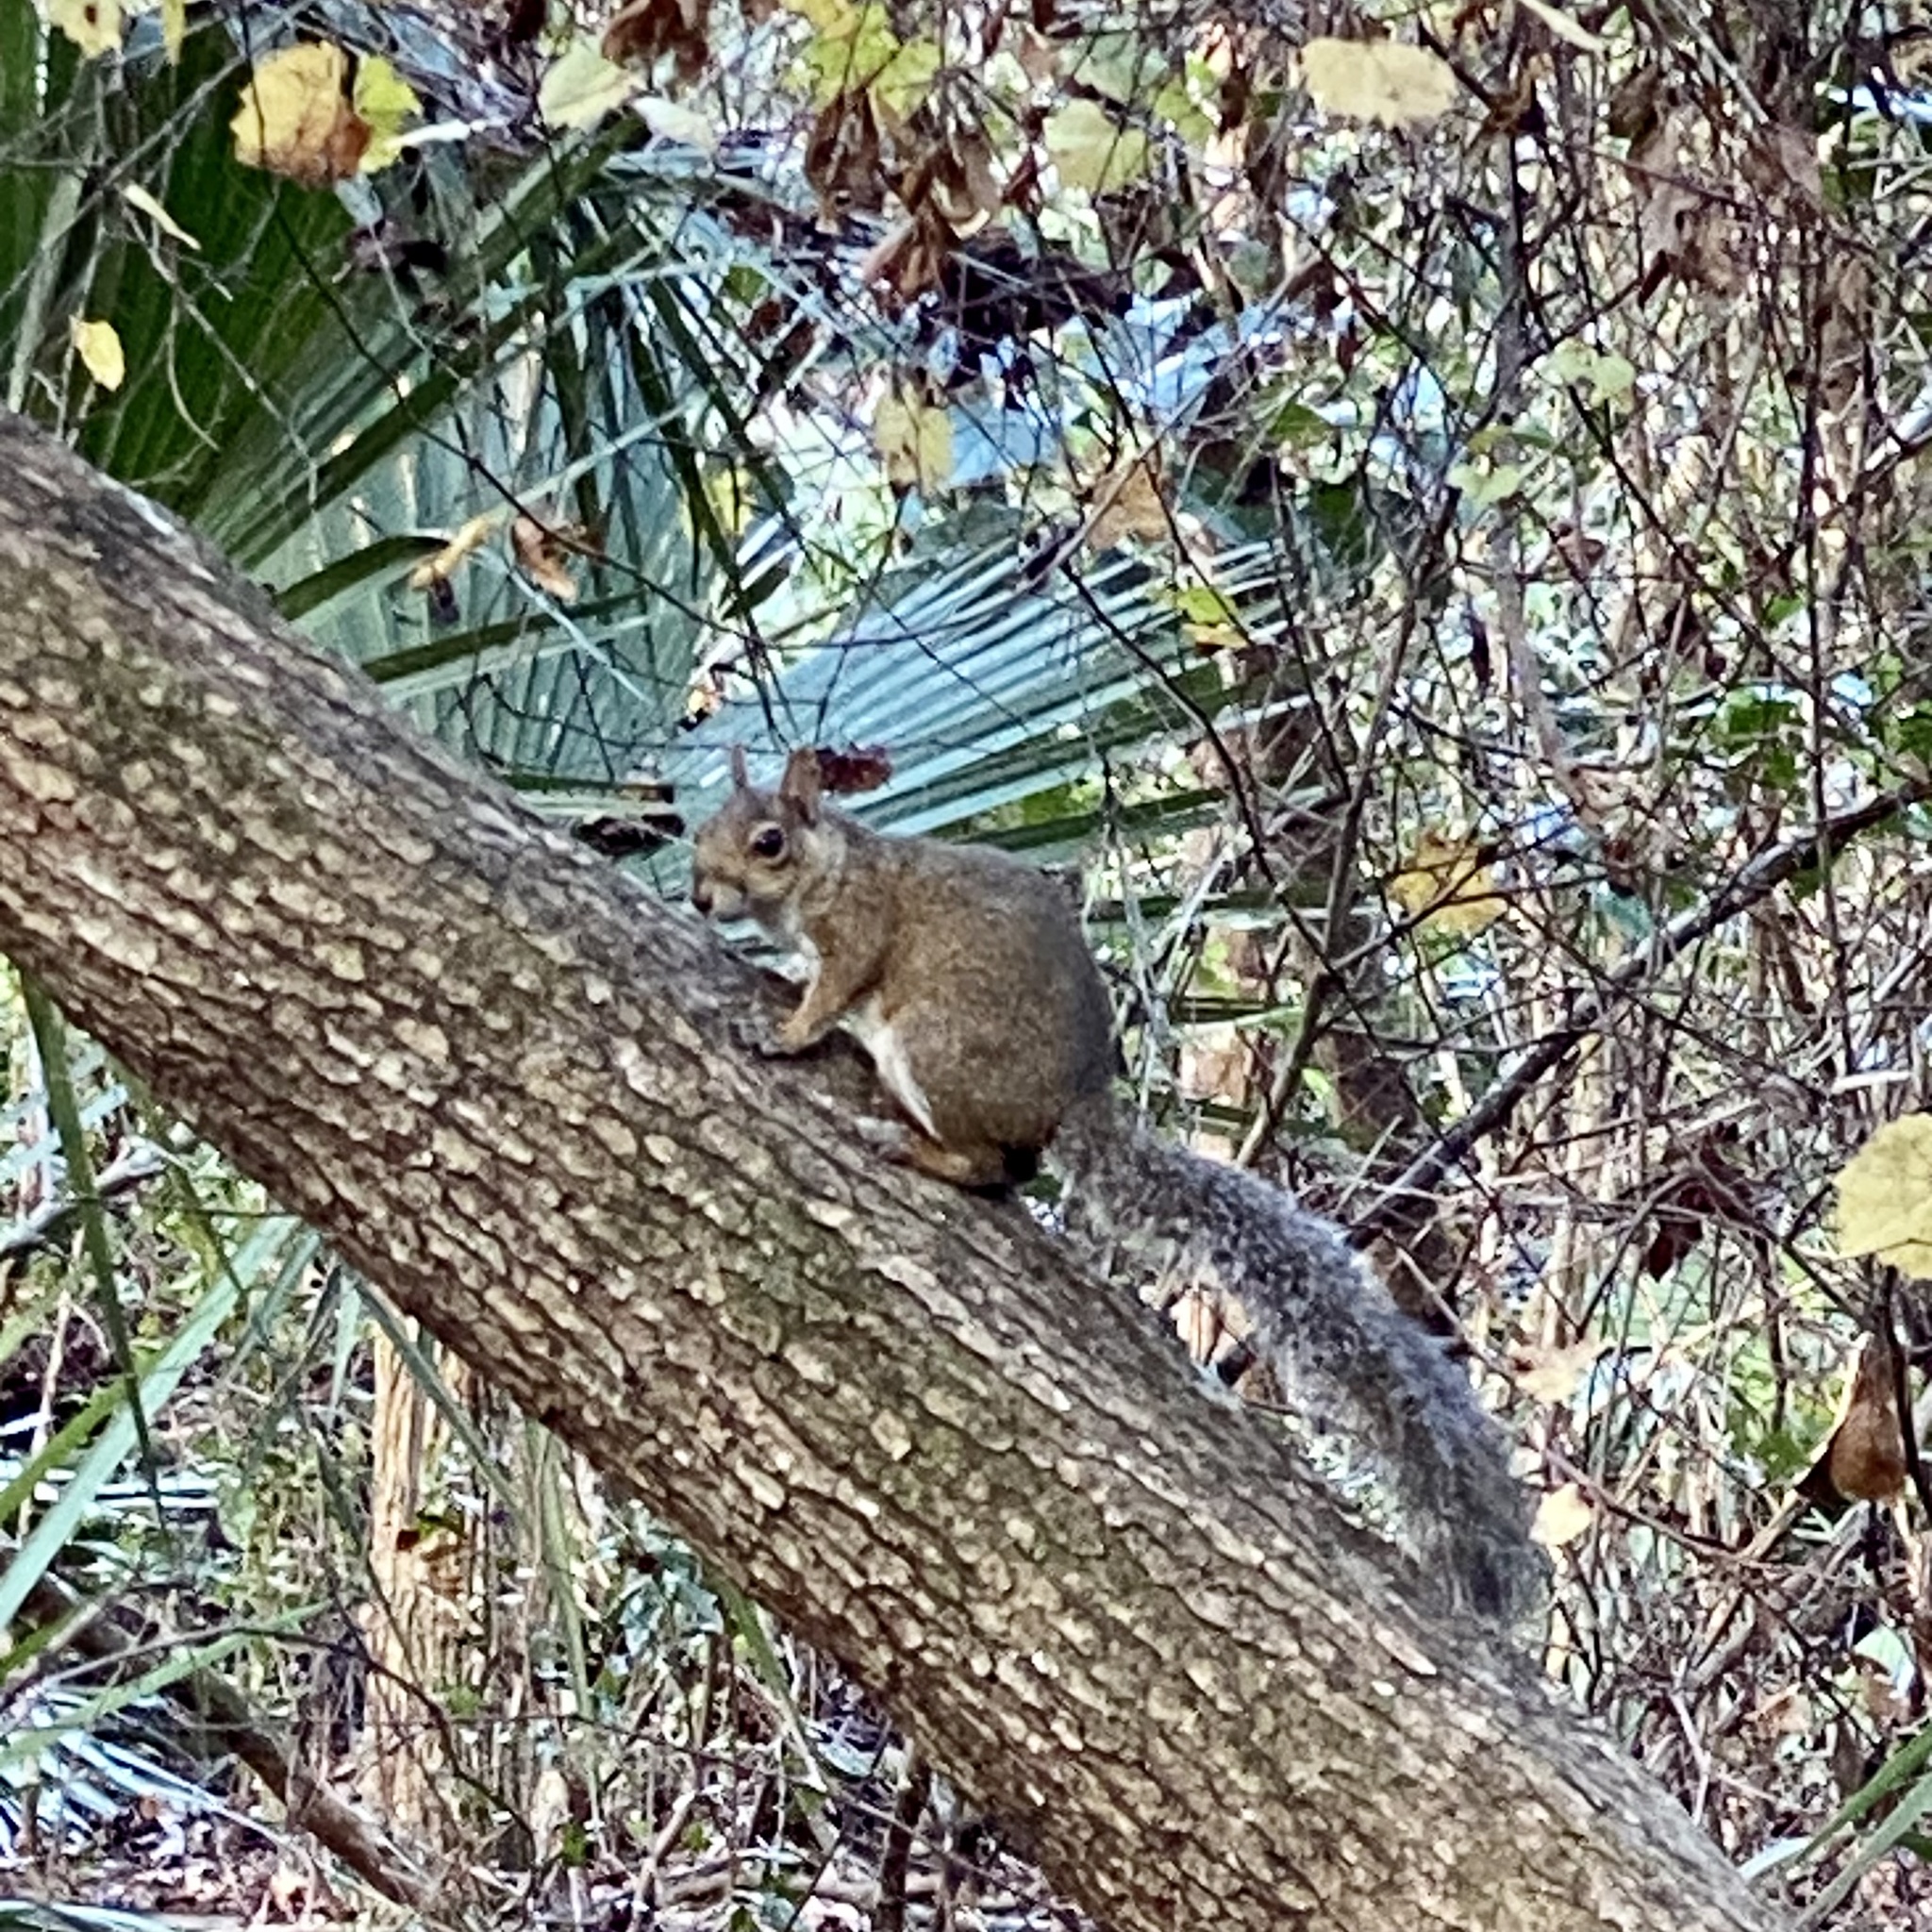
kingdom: Animalia
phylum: Chordata
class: Mammalia
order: Rodentia
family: Sciuridae
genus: Sciurus
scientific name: Sciurus carolinensis
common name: Eastern gray squirrel
